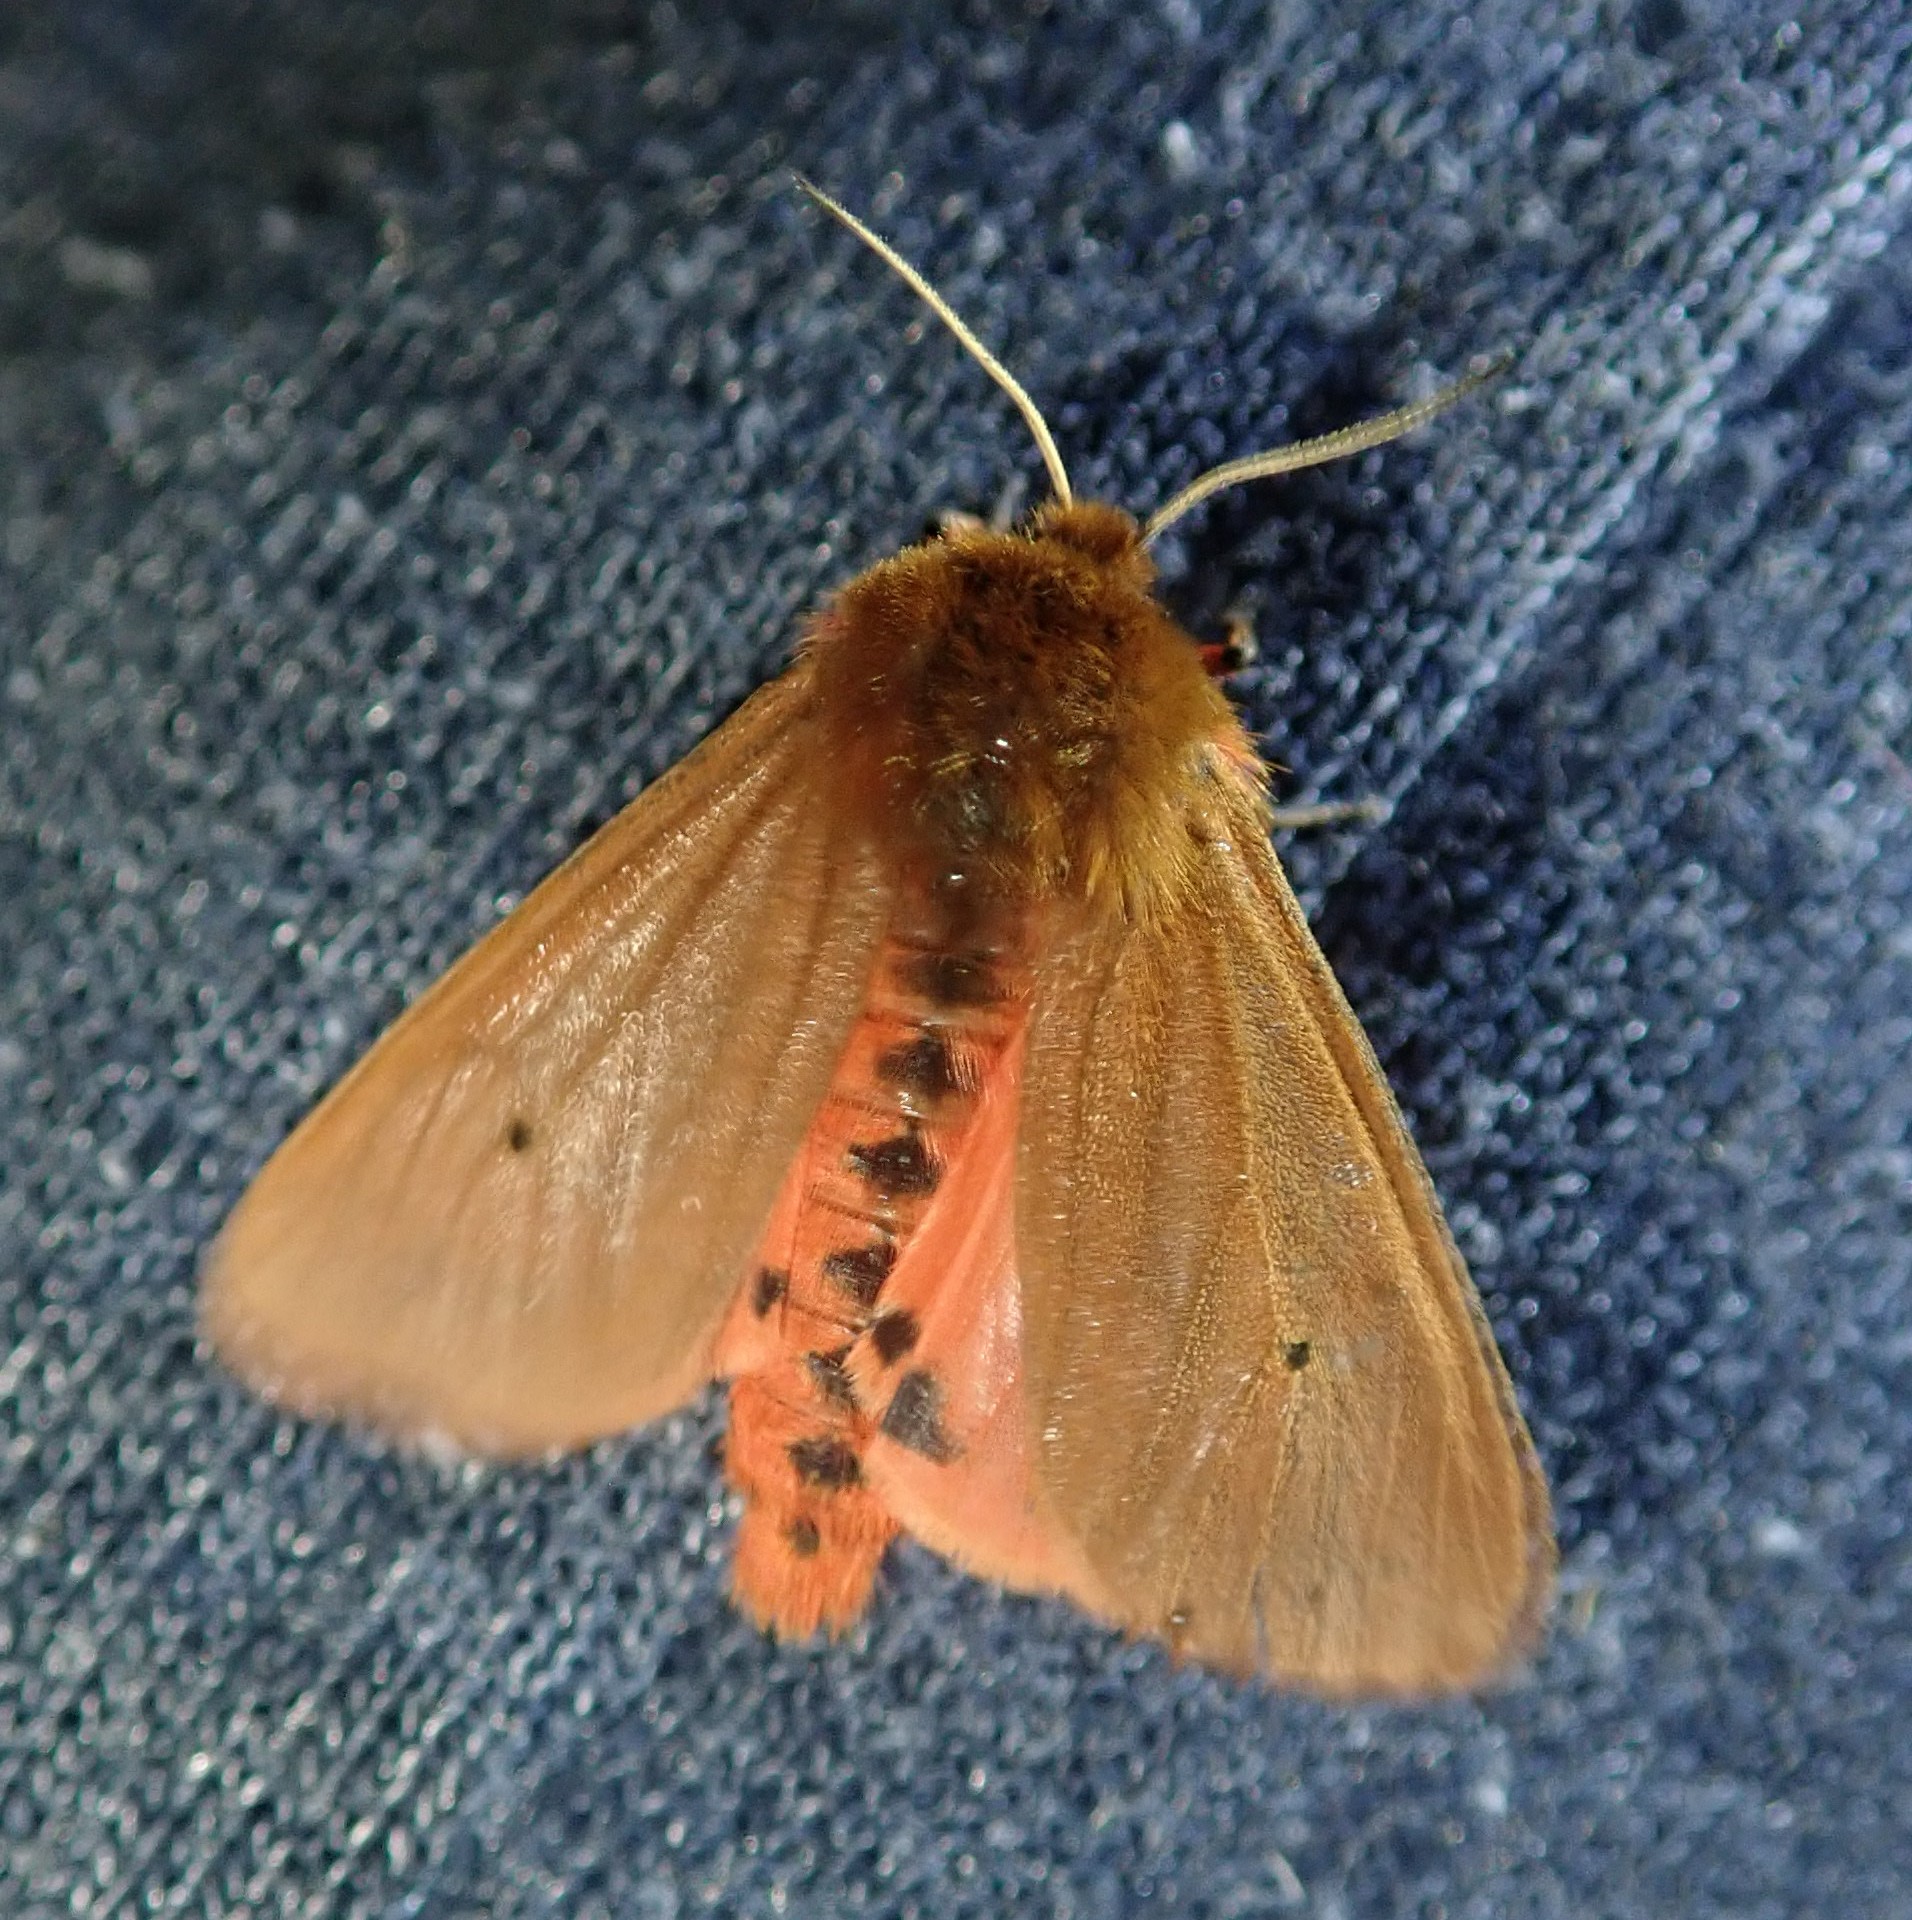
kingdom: Animalia
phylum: Arthropoda
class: Insecta
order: Lepidoptera
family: Erebidae
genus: Phragmatobia
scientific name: Phragmatobia fuliginosa
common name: Ruby tiger
